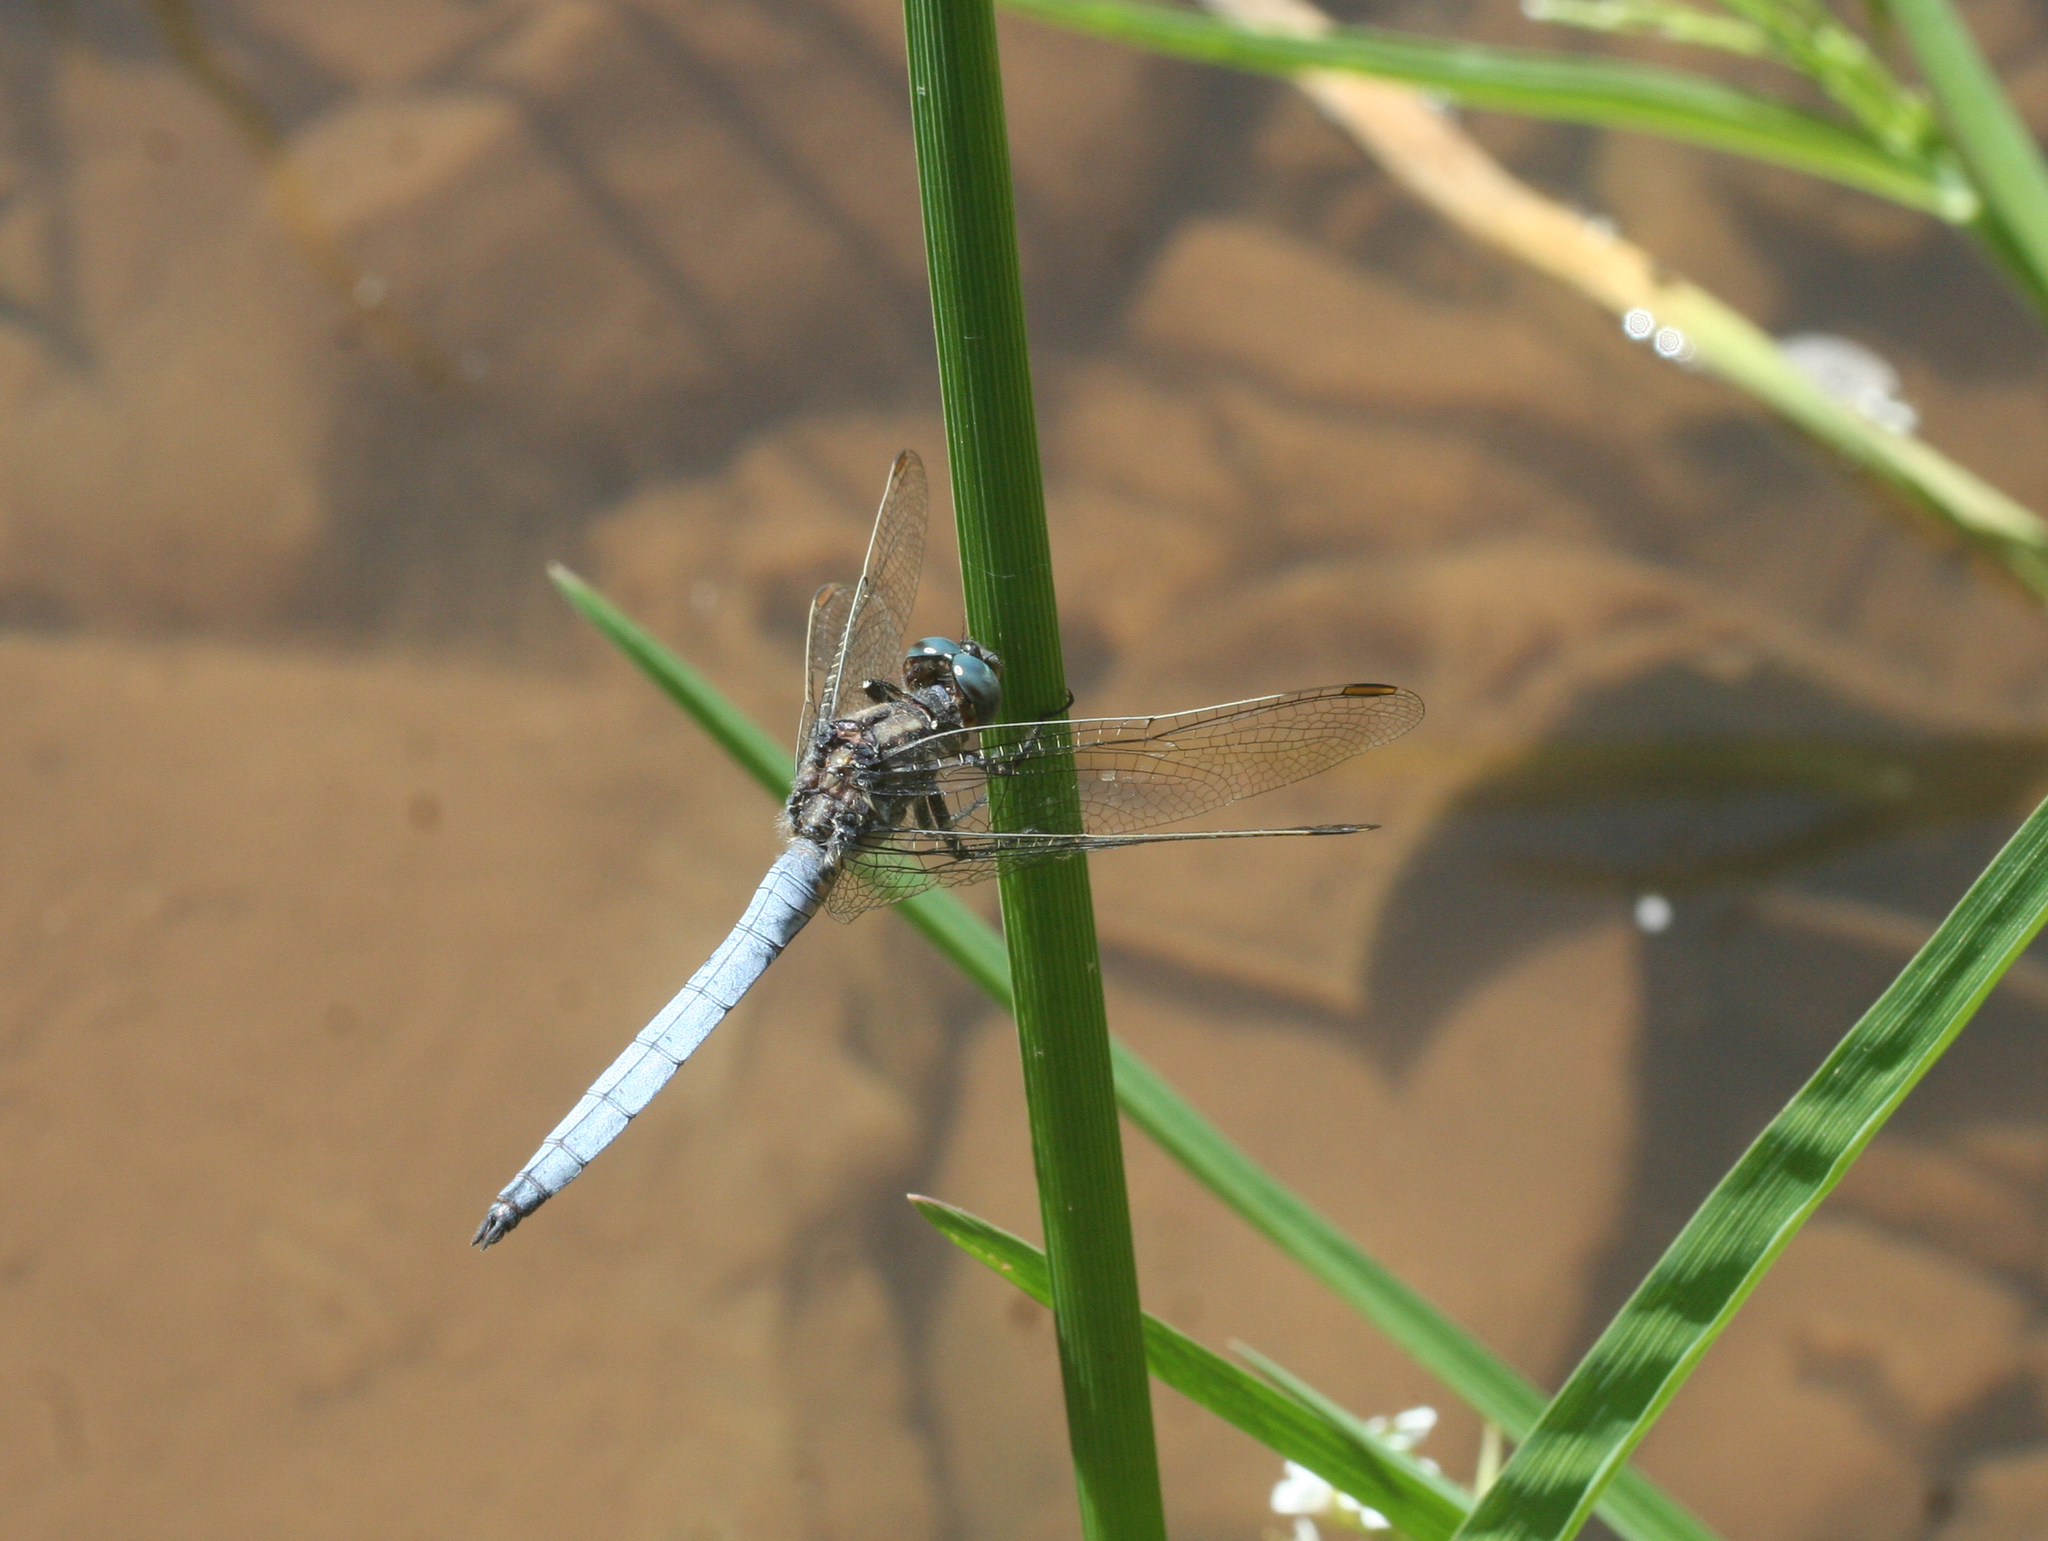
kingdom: Animalia
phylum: Arthropoda
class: Insecta
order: Odonata
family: Libellulidae
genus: Orthetrum
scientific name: Orthetrum coerulescens
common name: Keeled skimmer
